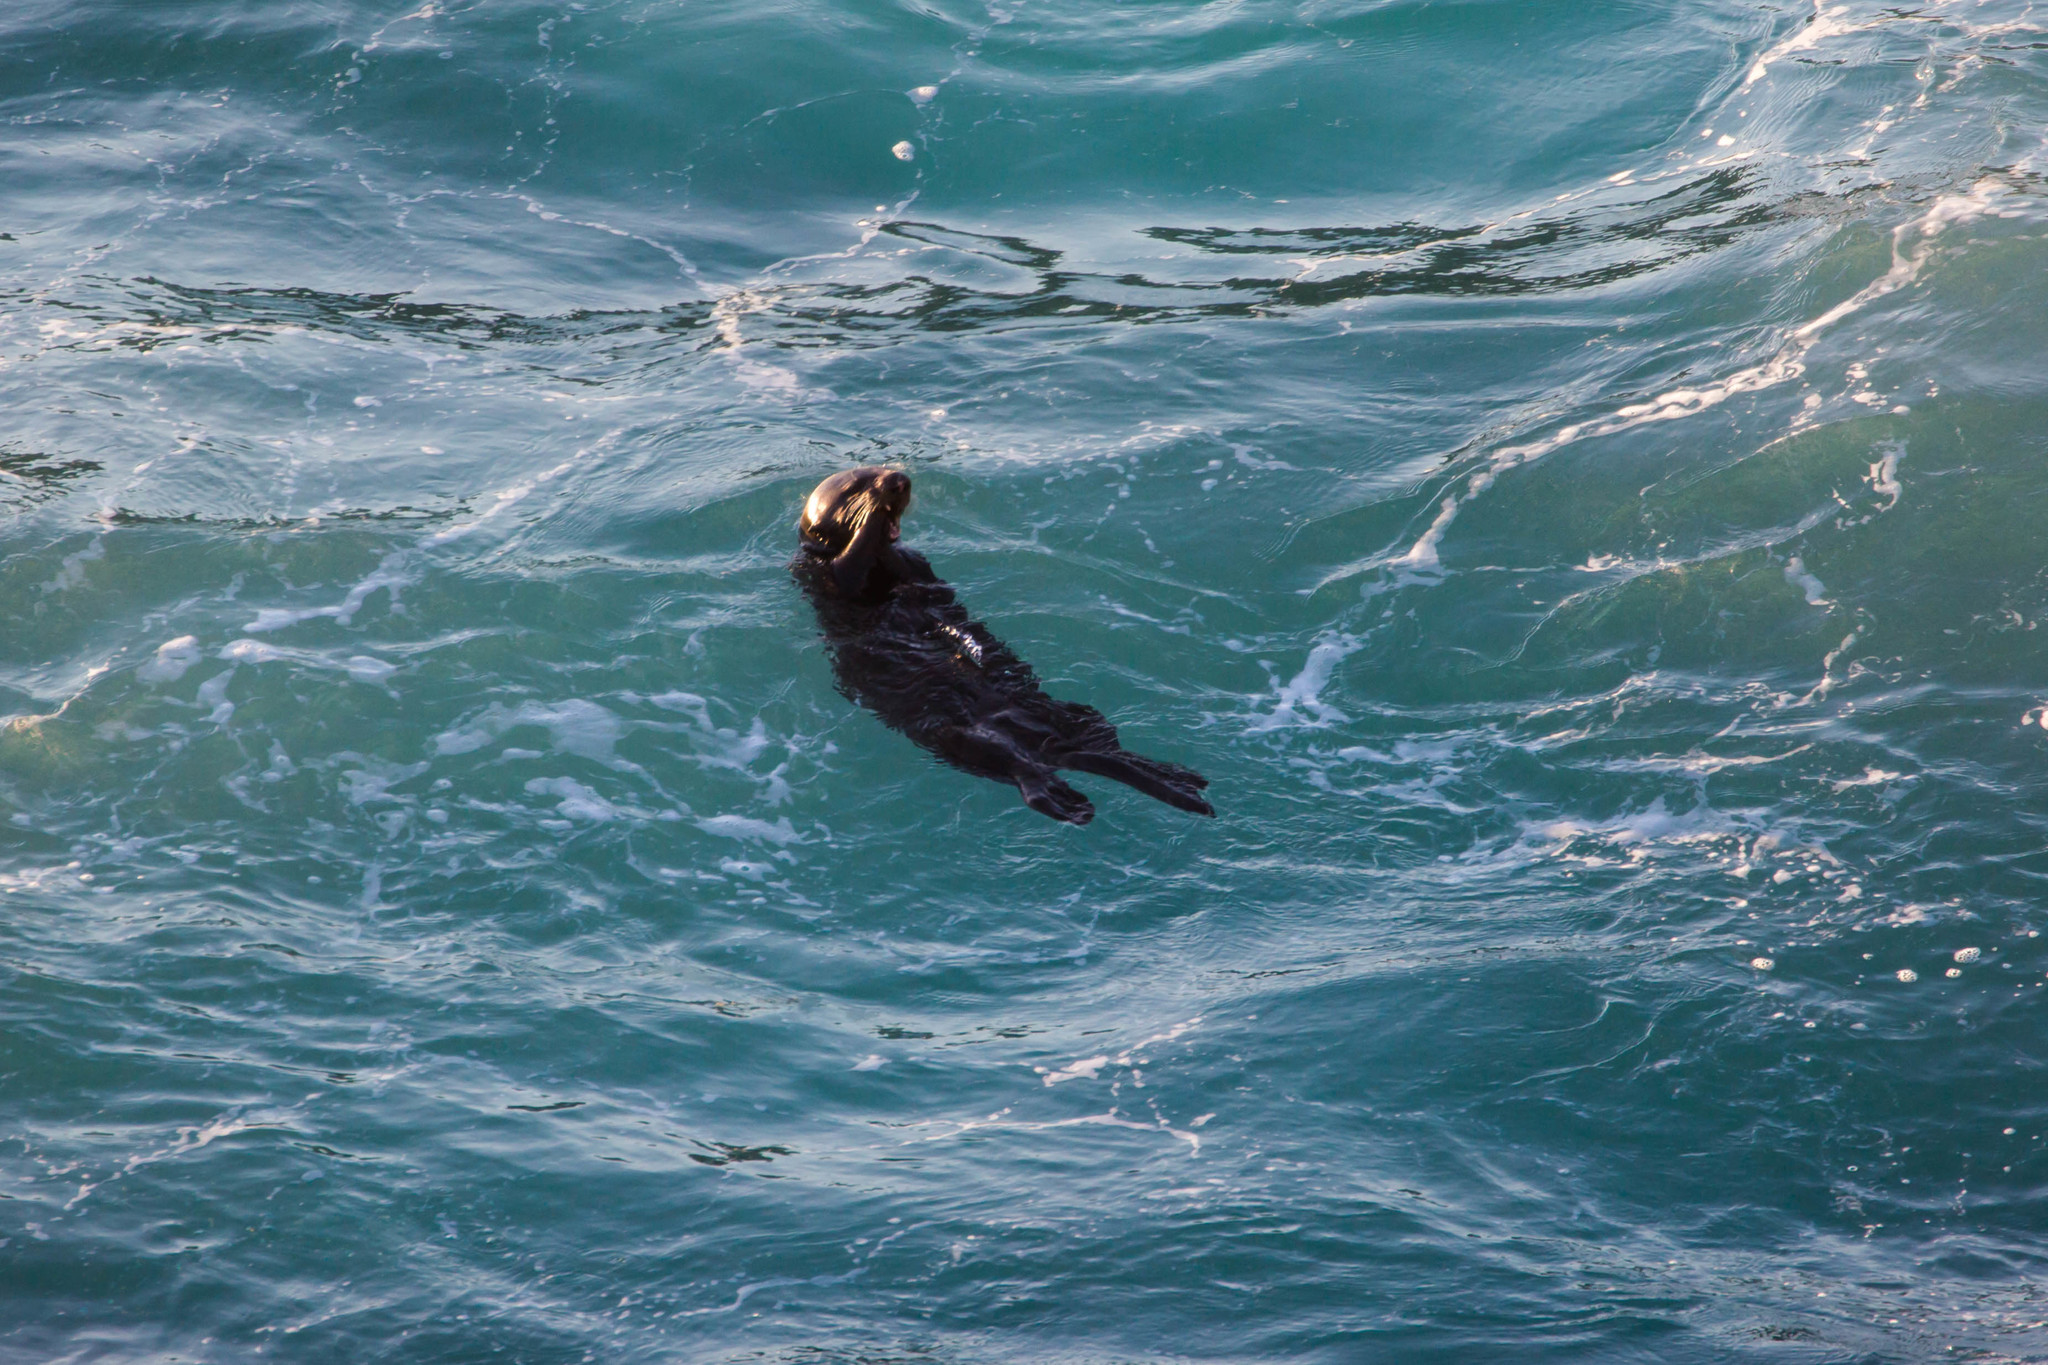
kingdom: Animalia
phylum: Chordata
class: Mammalia
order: Carnivora
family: Mustelidae
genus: Enhydra
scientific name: Enhydra lutris
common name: Sea otter
